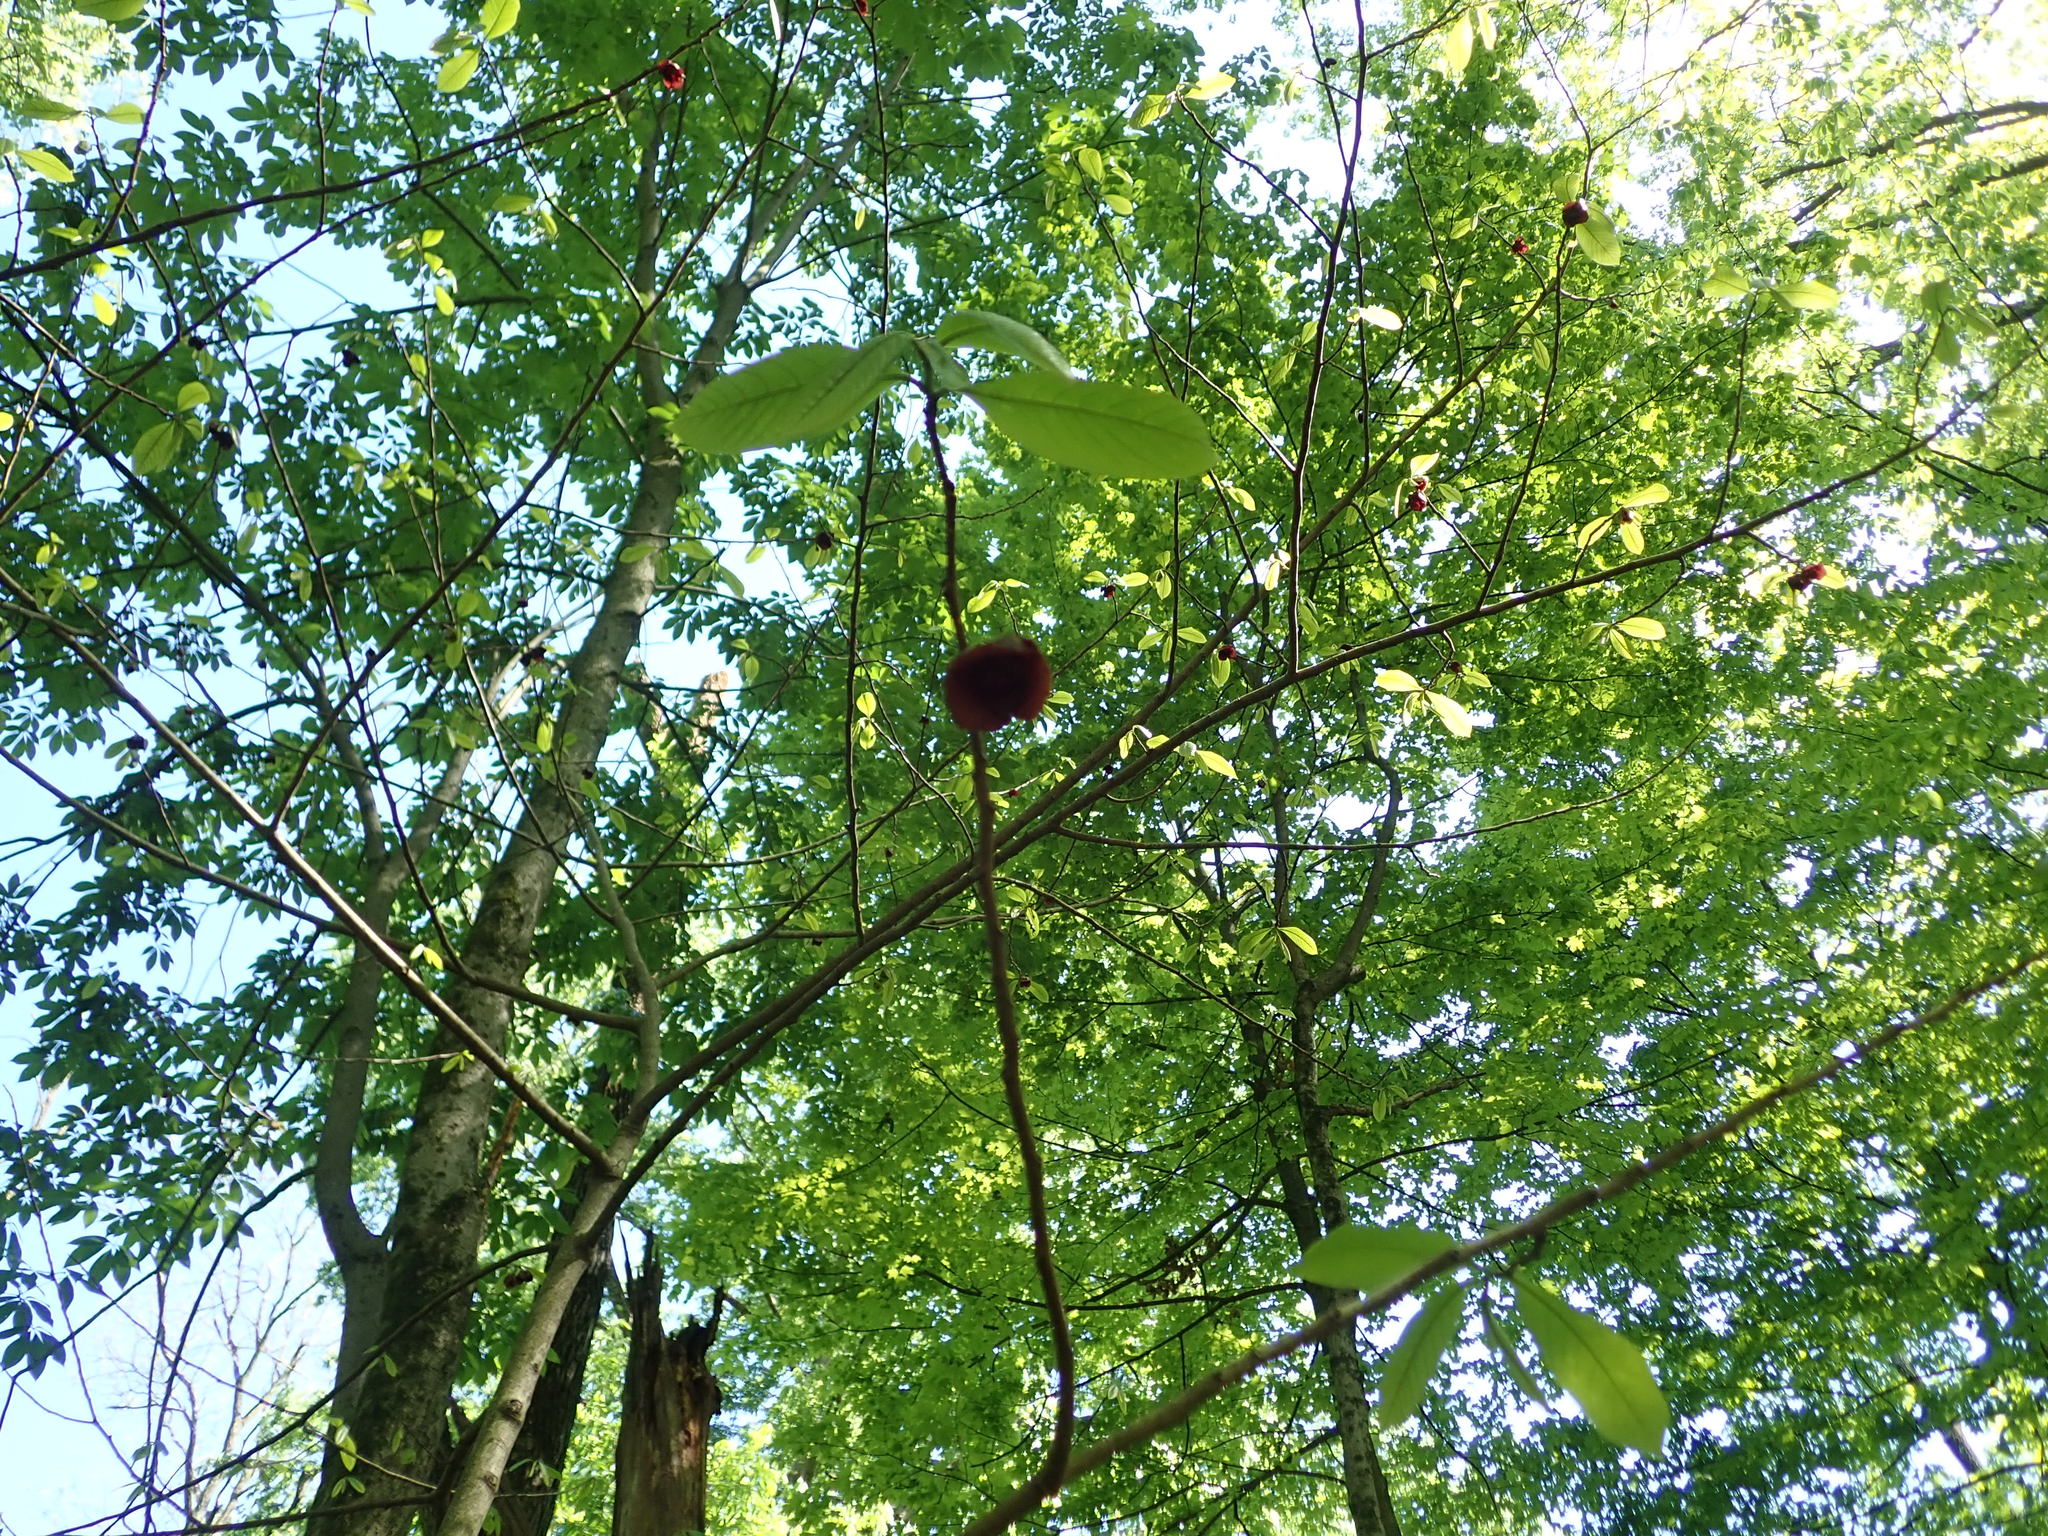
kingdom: Plantae
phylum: Tracheophyta
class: Magnoliopsida
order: Magnoliales
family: Annonaceae
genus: Asimina
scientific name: Asimina triloba
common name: Dog-banana
